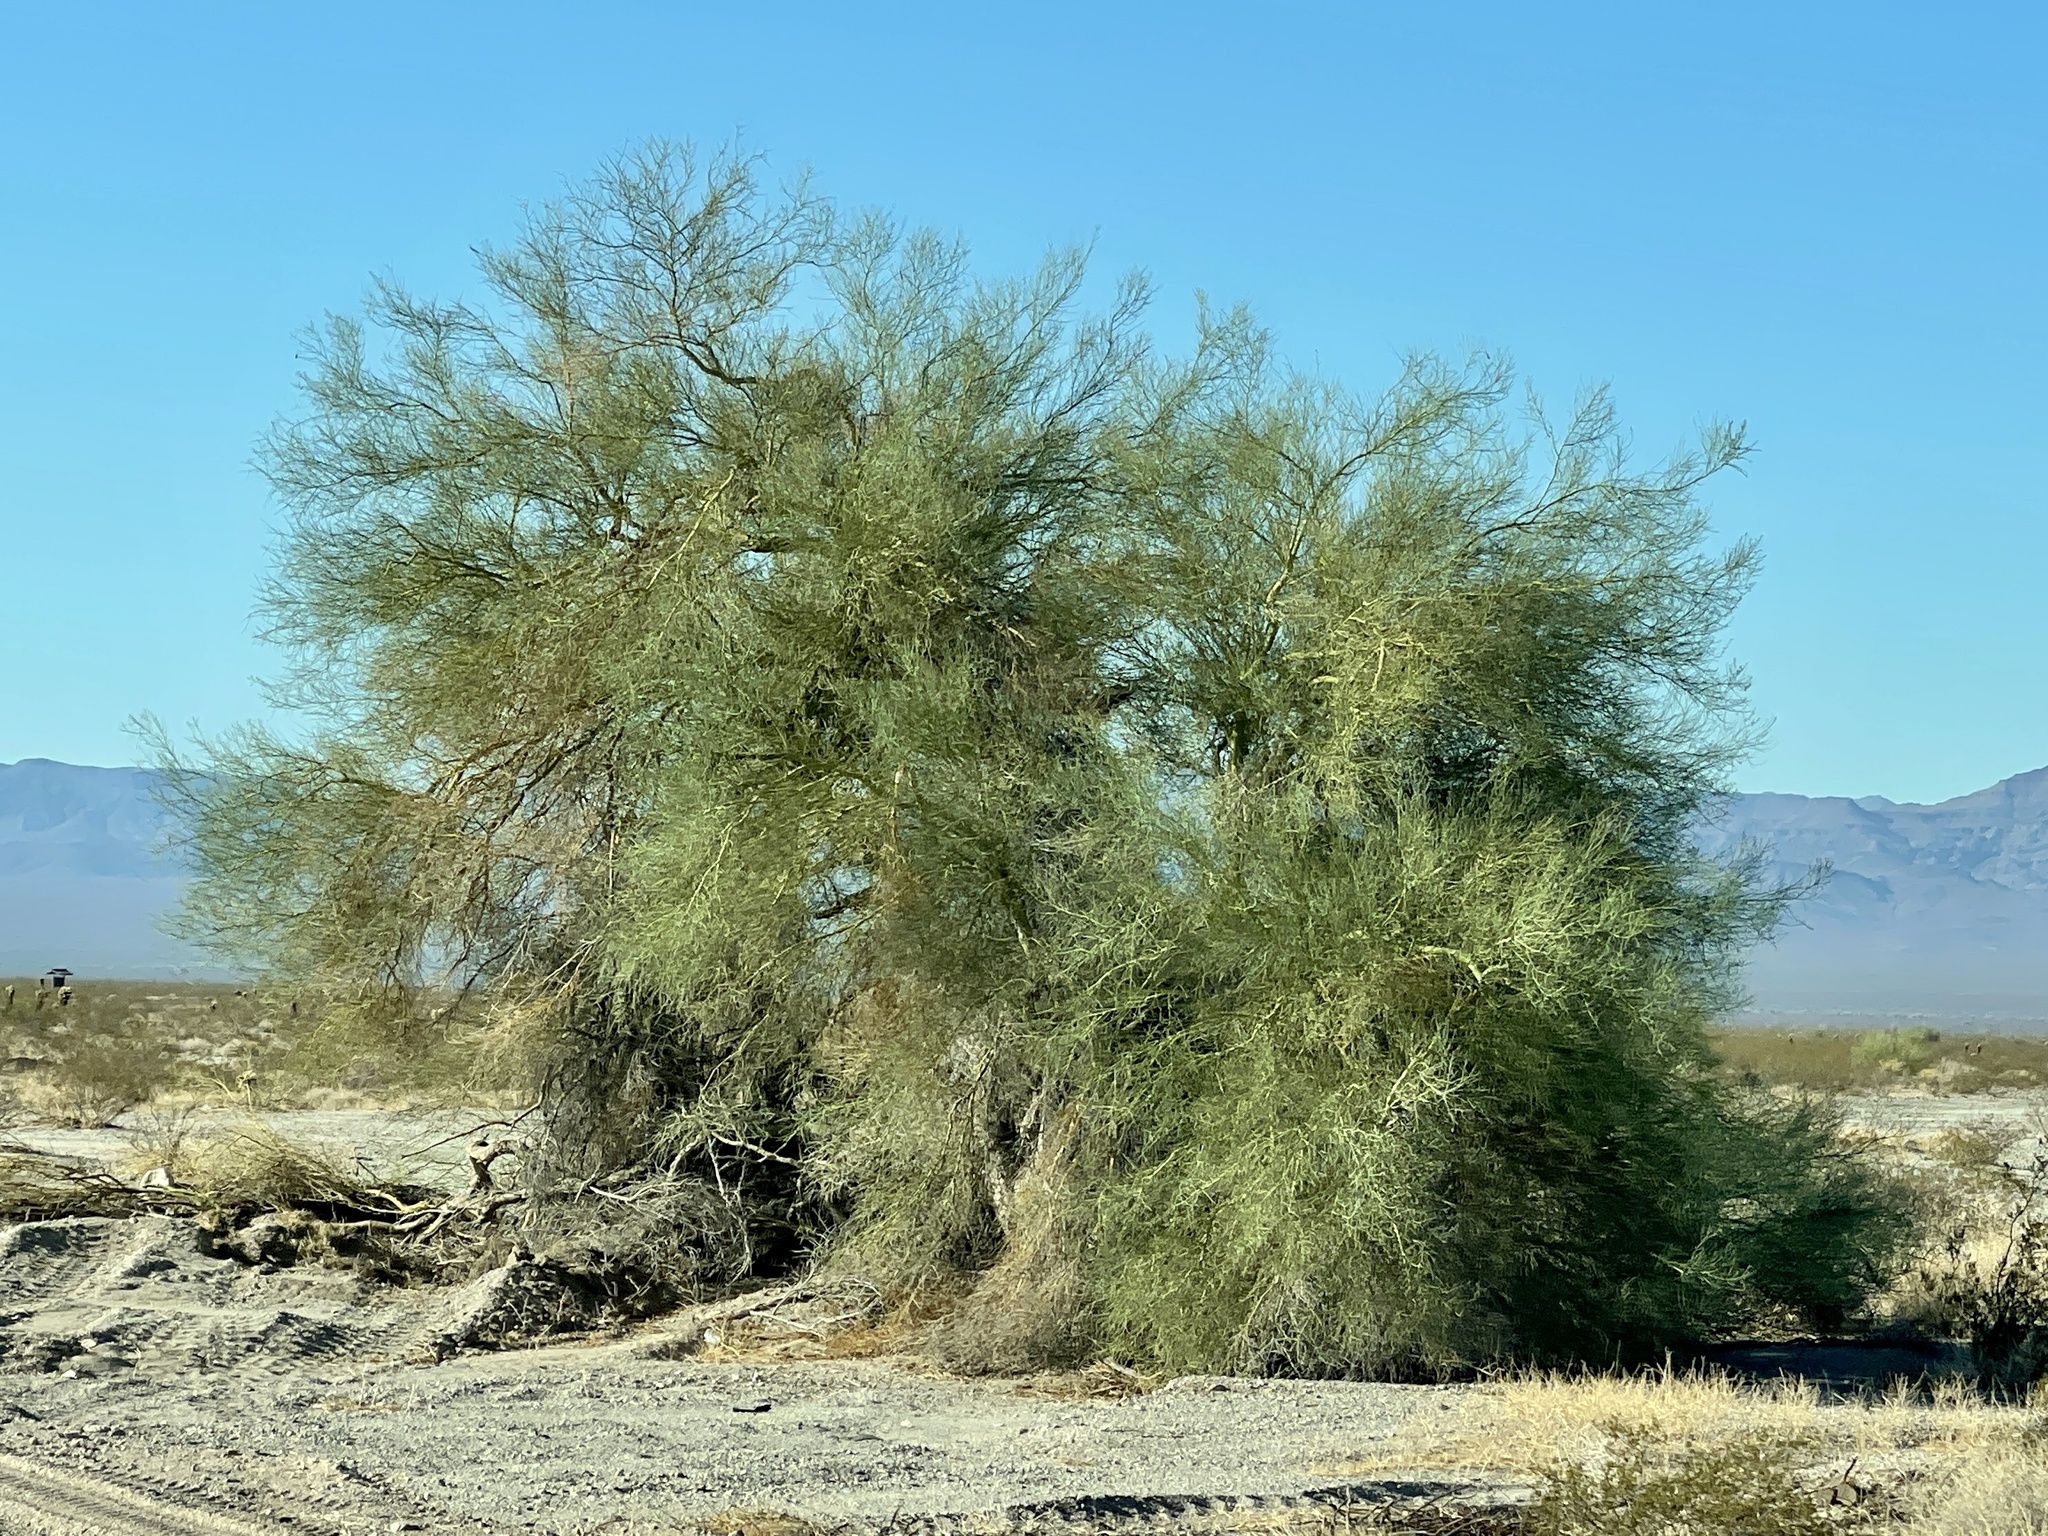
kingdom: Plantae
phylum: Tracheophyta
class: Magnoliopsida
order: Fabales
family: Fabaceae
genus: Parkinsonia
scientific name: Parkinsonia florida
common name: Blue paloverde
